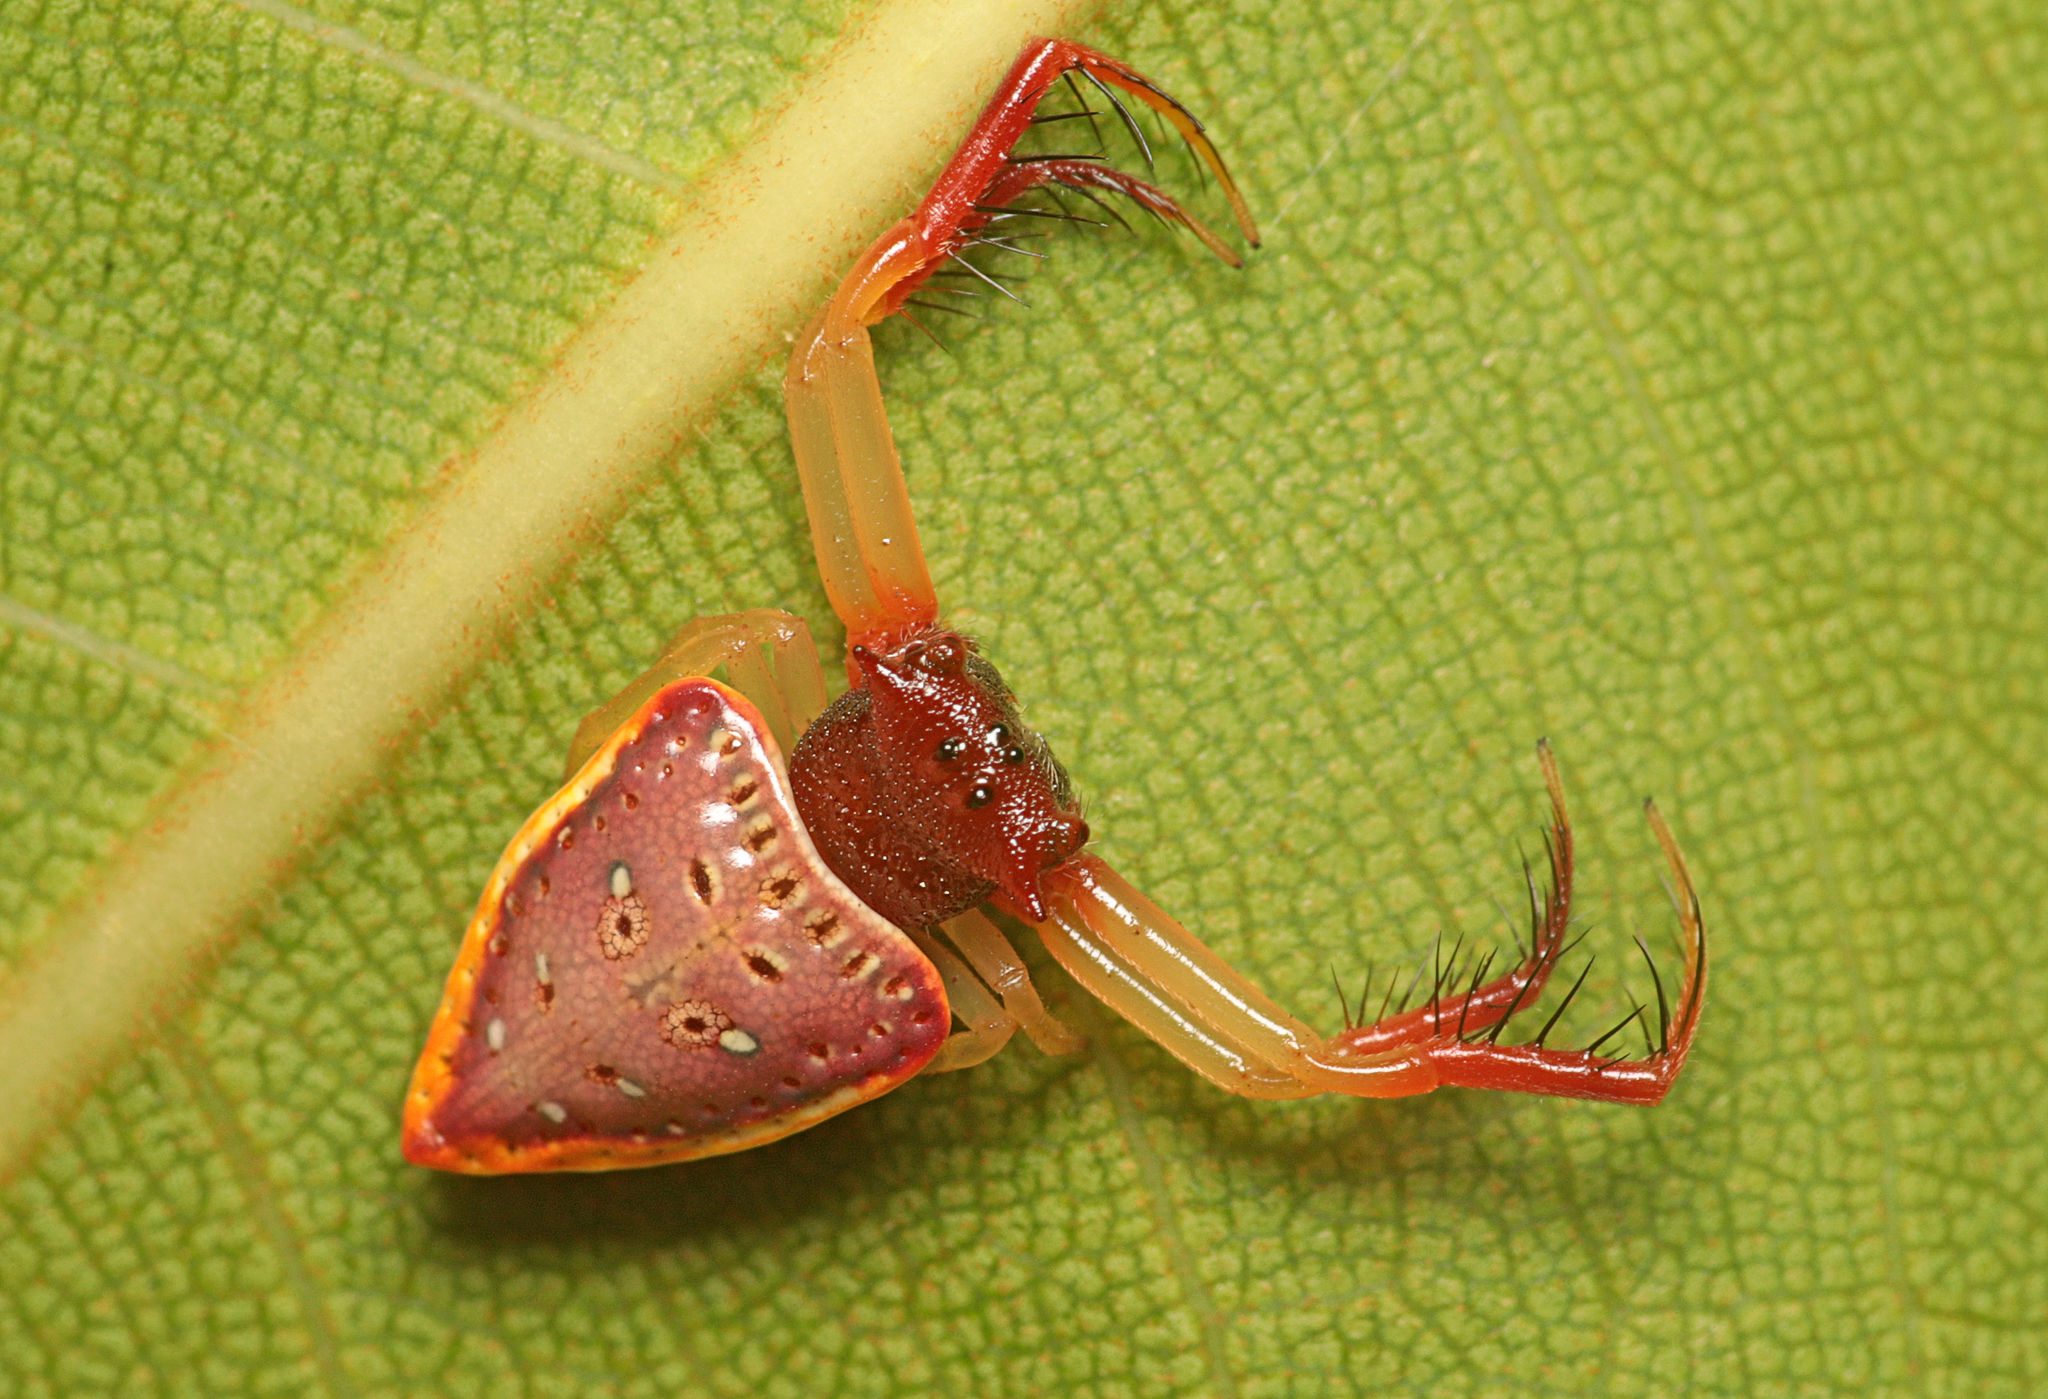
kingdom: Animalia
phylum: Arthropoda
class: Arachnida
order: Araneae
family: Arkyidae
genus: Arkys
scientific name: Arkys cornutus
